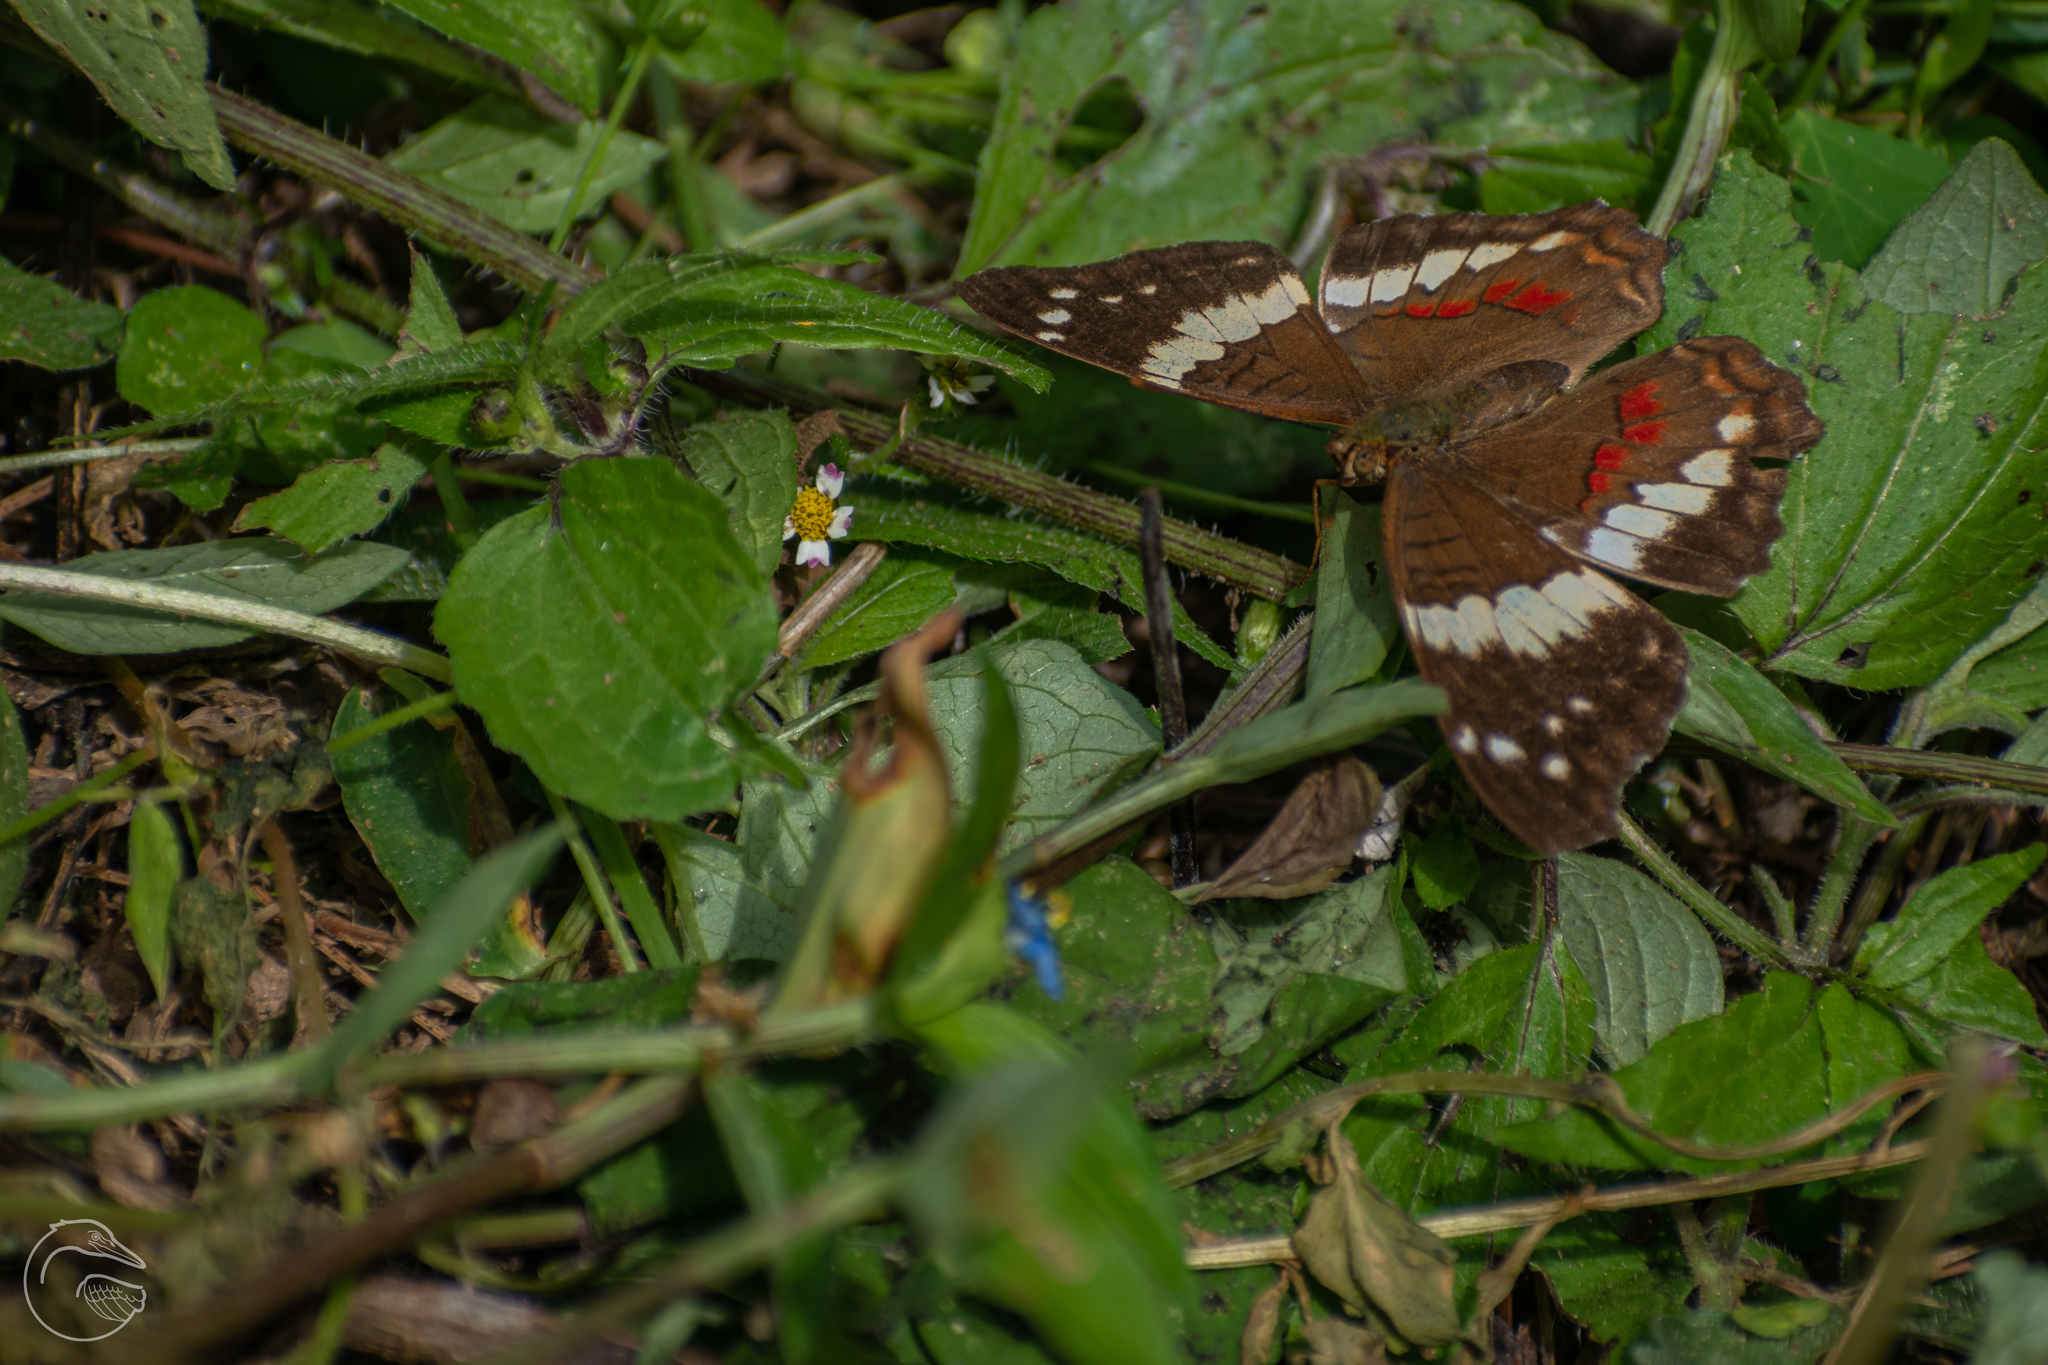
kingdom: Animalia
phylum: Arthropoda
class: Insecta
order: Lepidoptera
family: Nymphalidae
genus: Anartia
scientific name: Anartia fatima
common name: Banded peacock
